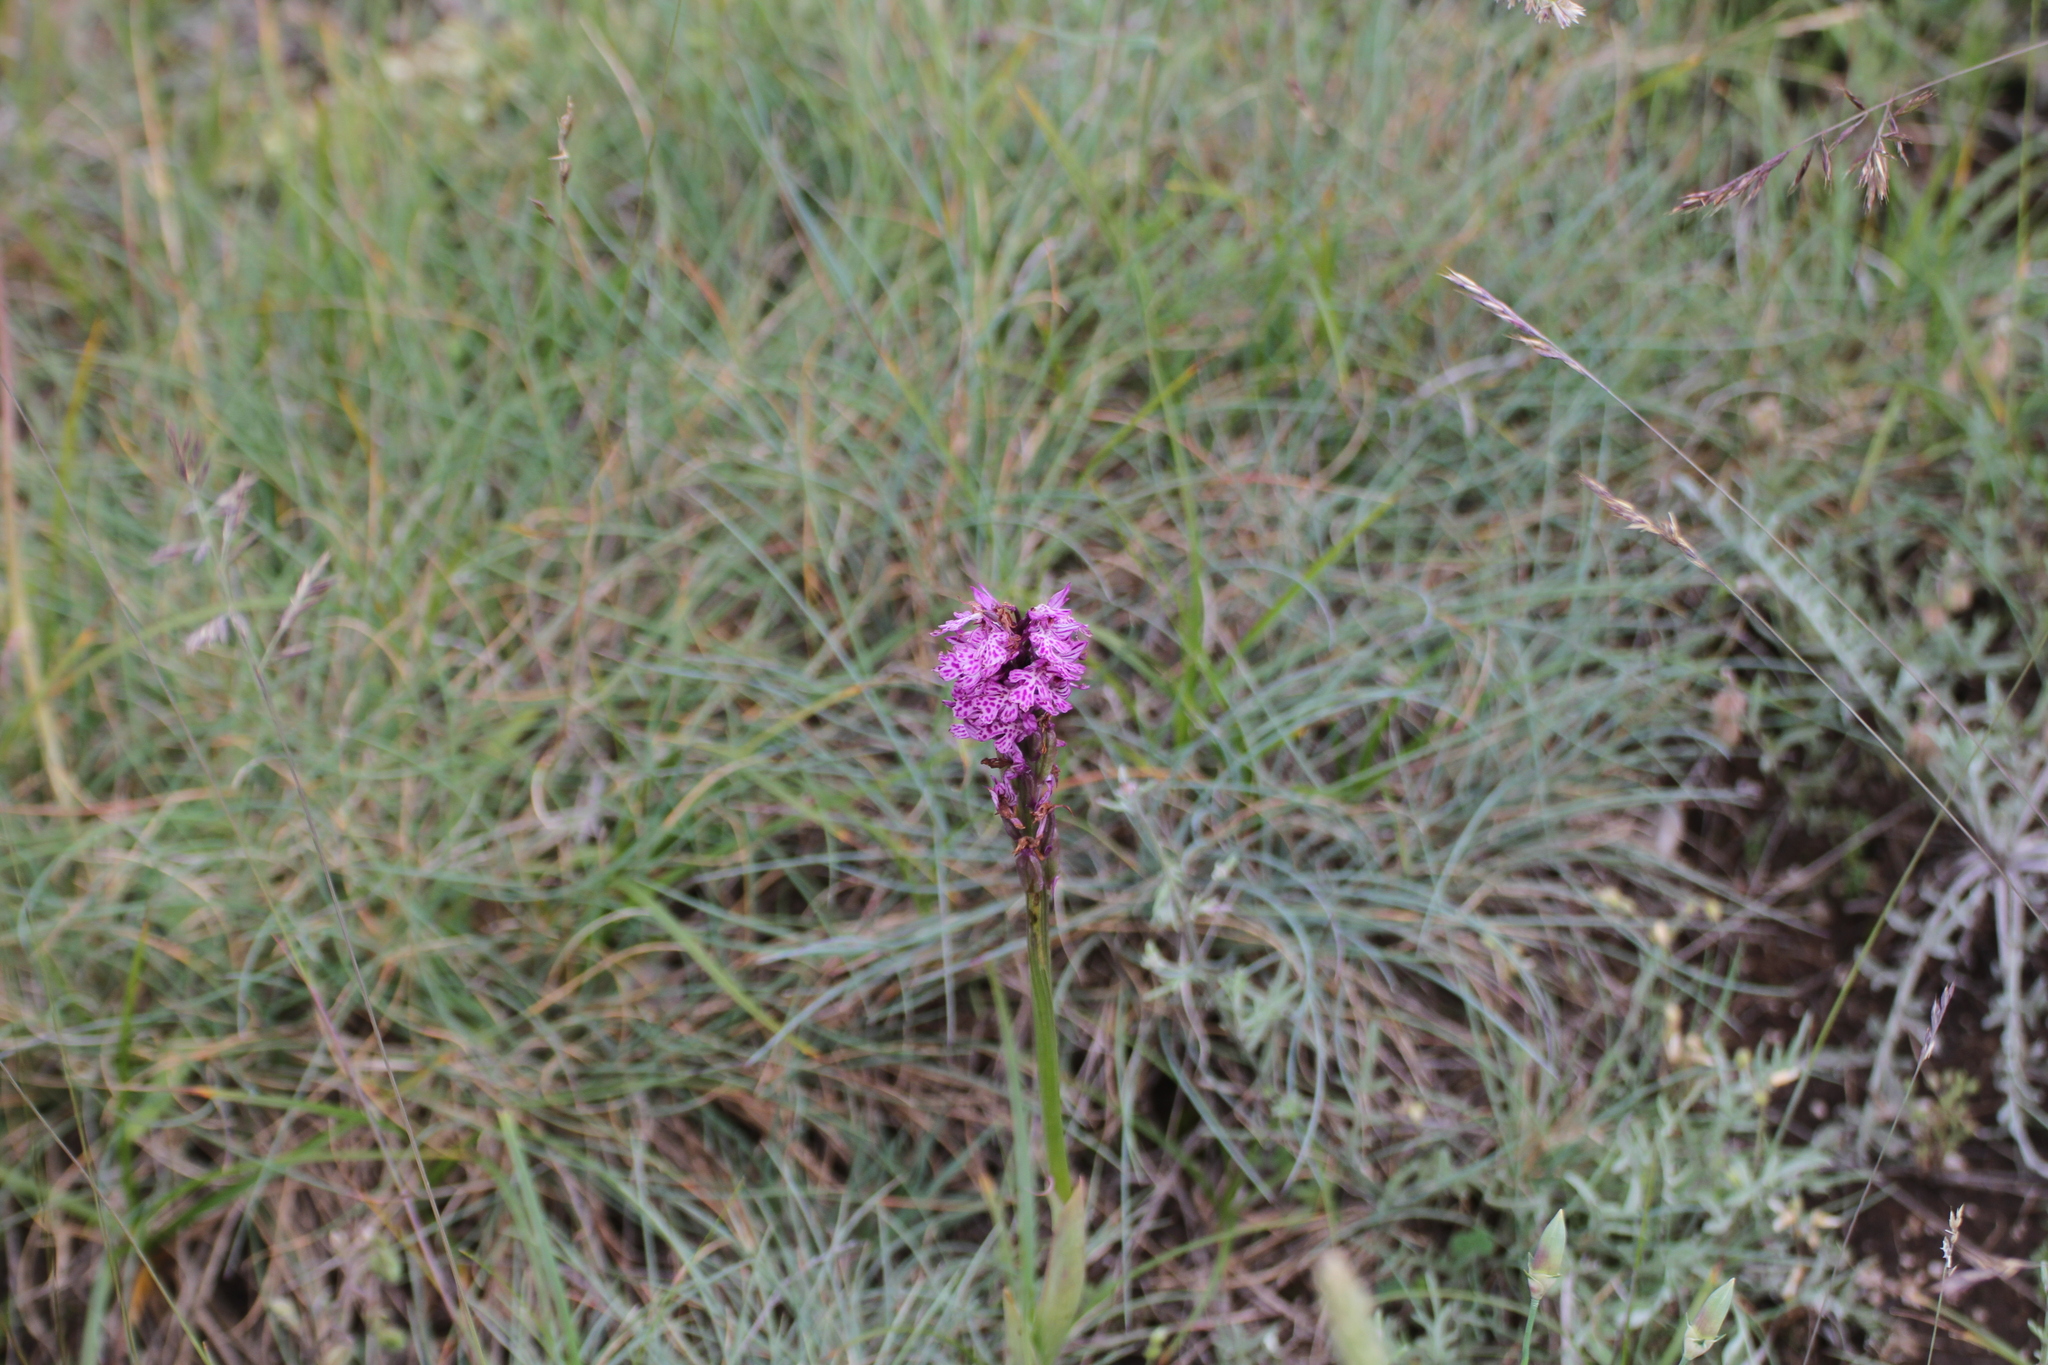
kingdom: Plantae
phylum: Tracheophyta
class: Liliopsida
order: Asparagales
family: Orchidaceae
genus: Neotinea
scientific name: Neotinea tridentata
